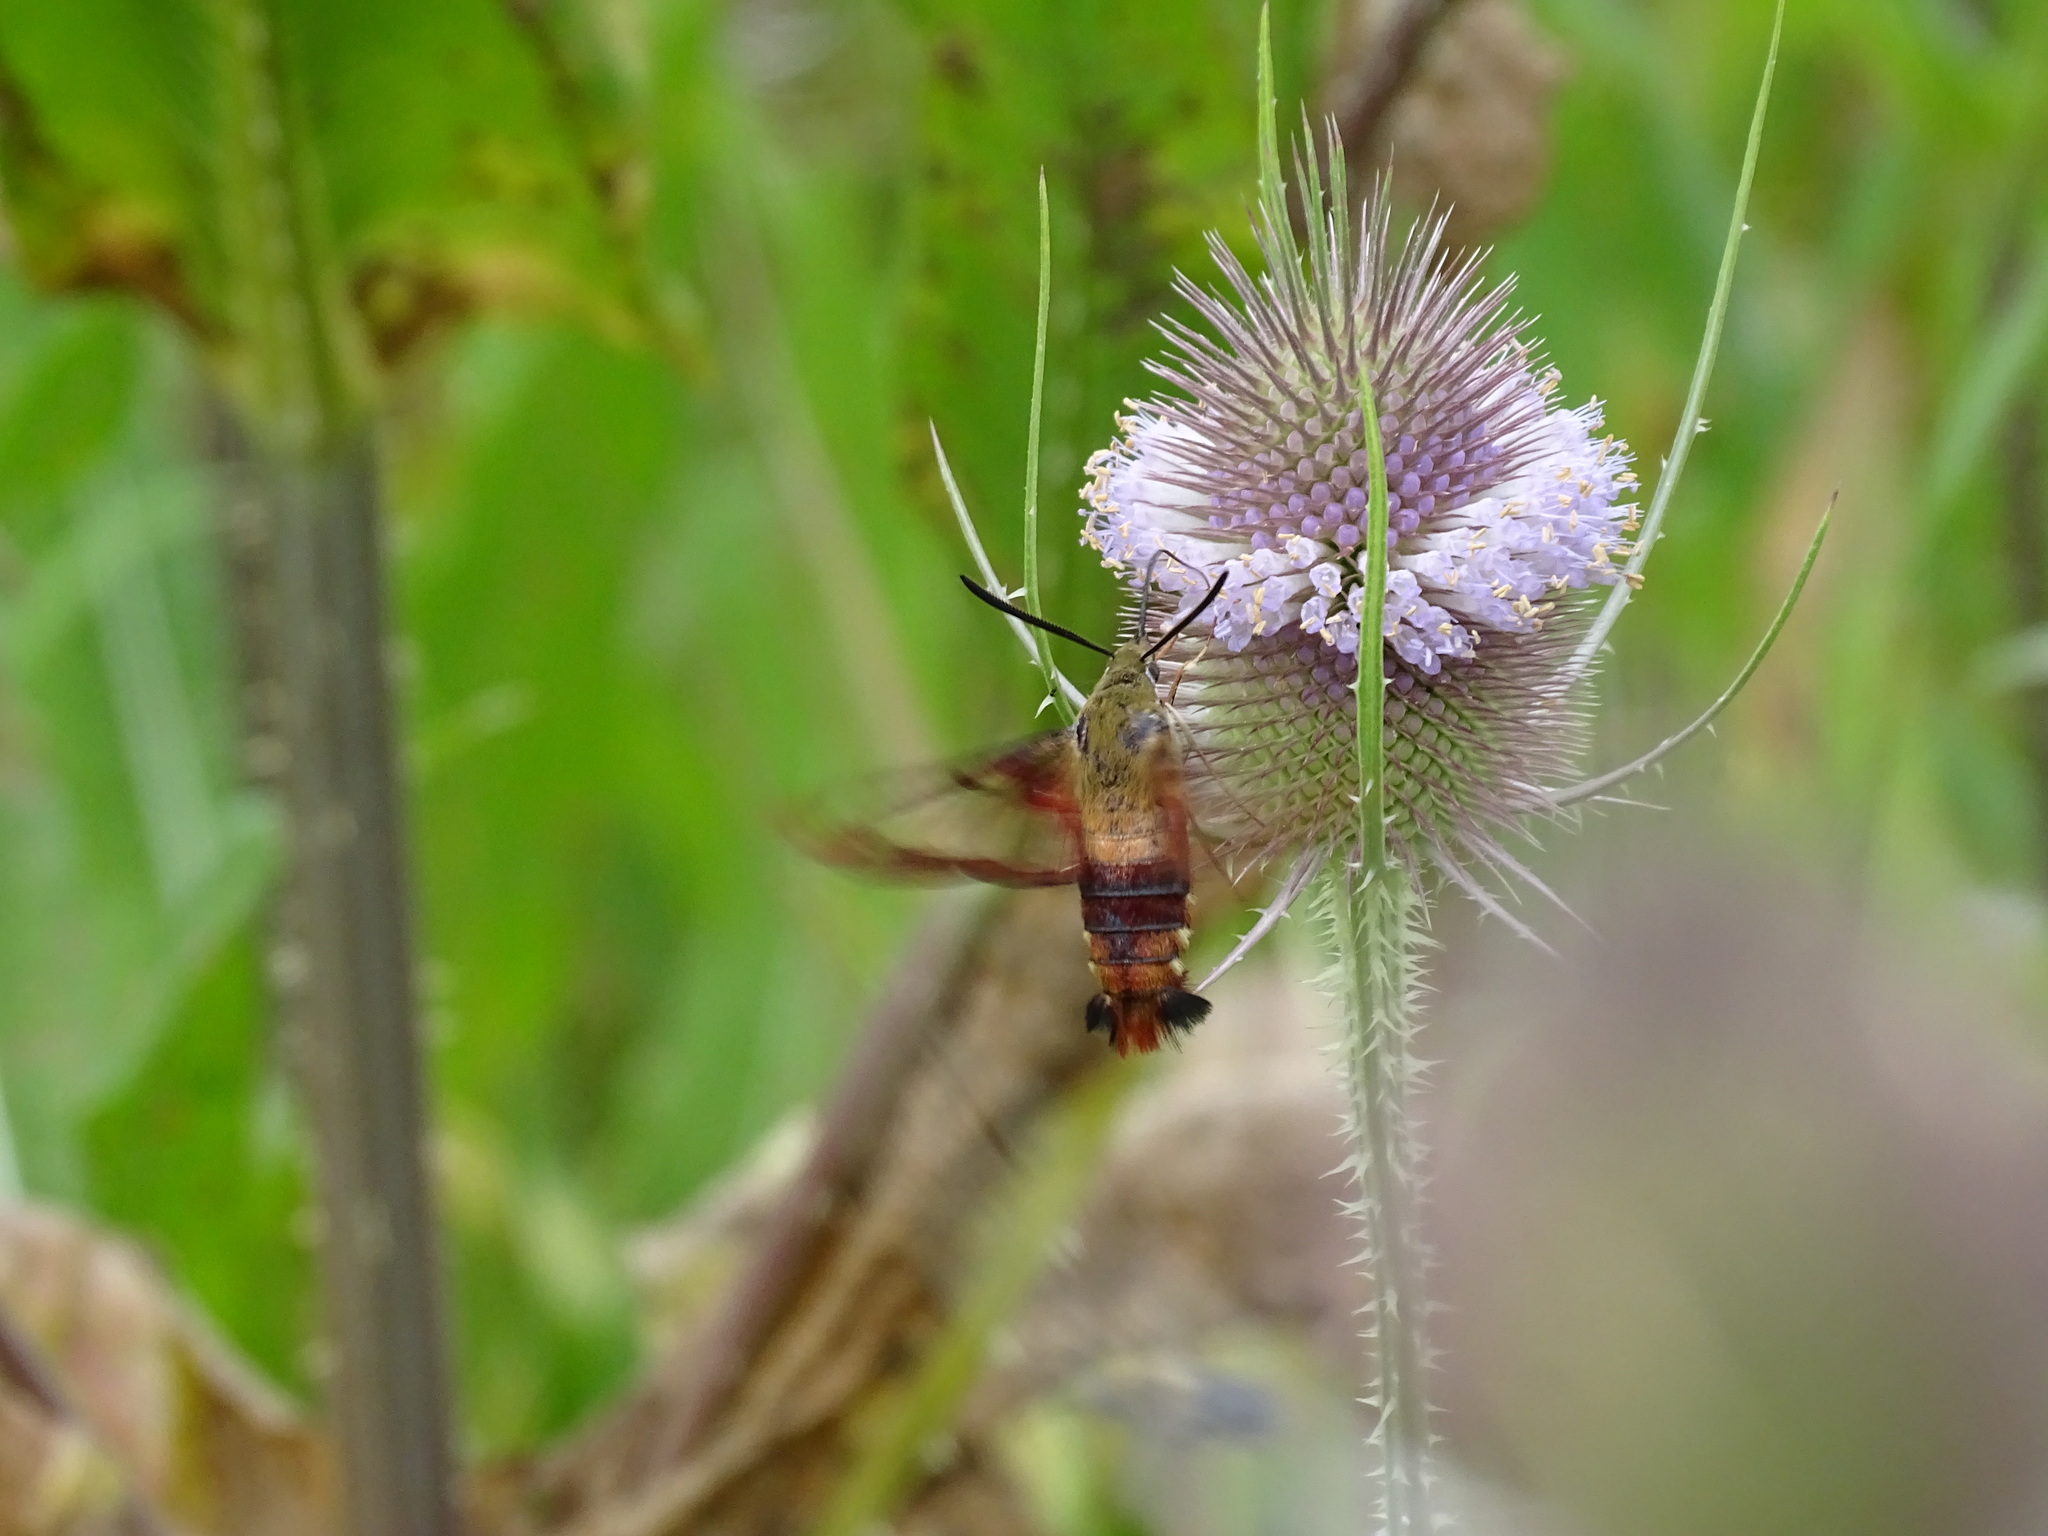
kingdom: Animalia
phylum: Arthropoda
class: Insecta
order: Lepidoptera
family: Sphingidae
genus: Hemaris
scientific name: Hemaris thysbe
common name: Common clear-wing
